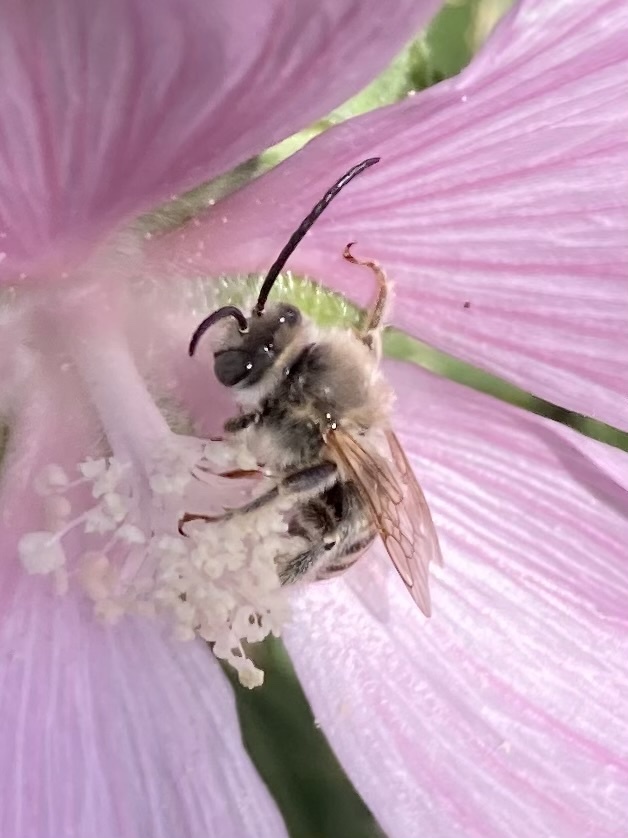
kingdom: Animalia
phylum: Arthropoda
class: Insecta
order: Hymenoptera
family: Apidae
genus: Tetralonia
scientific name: Tetralonia malvae
